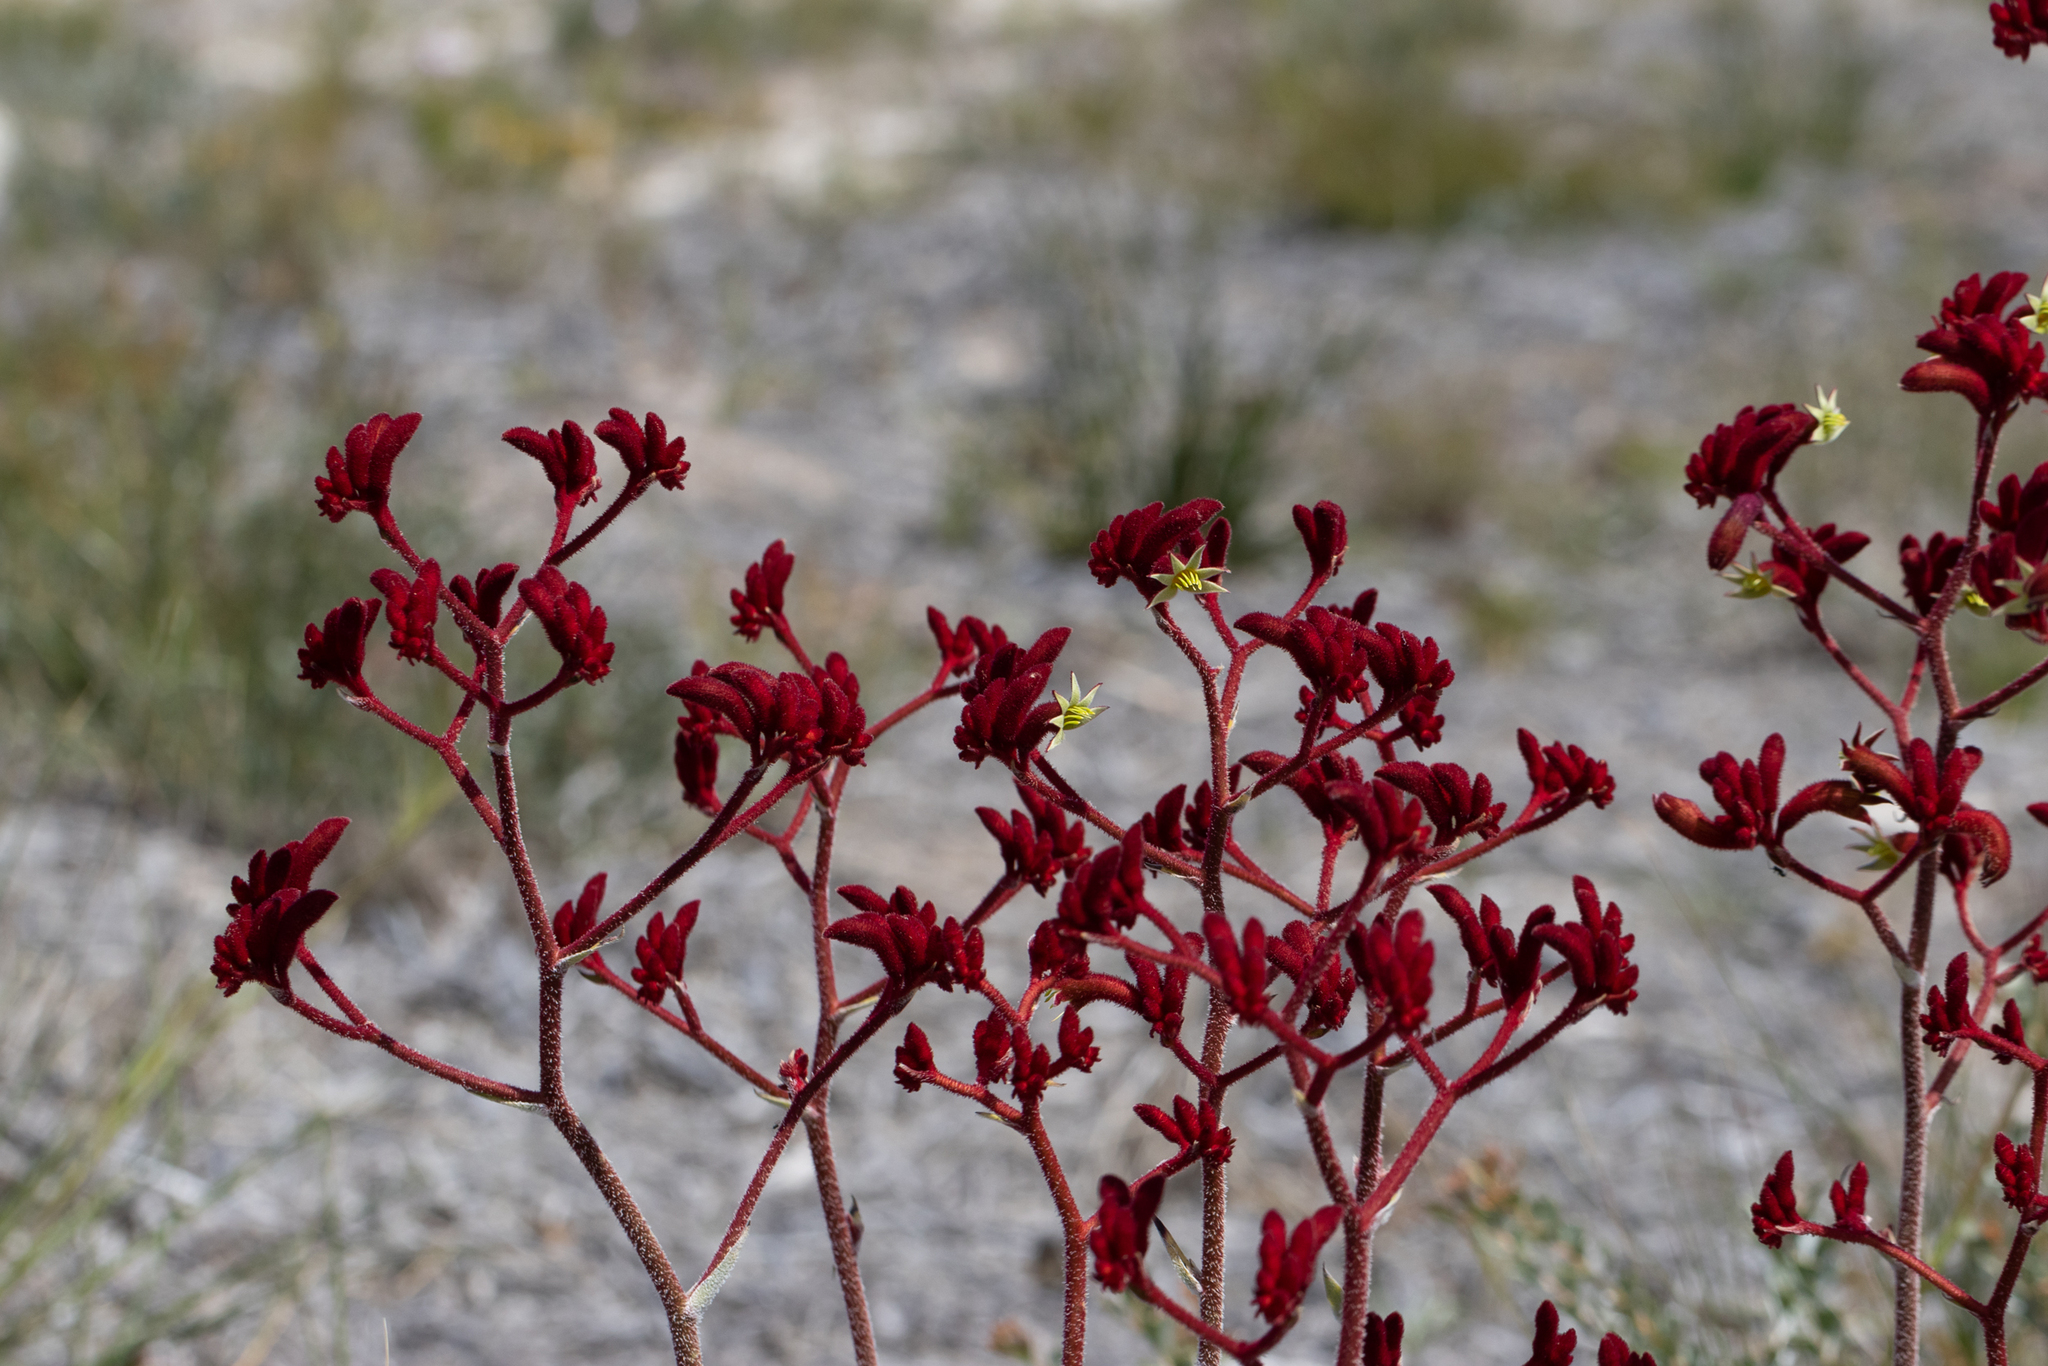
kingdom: Plantae
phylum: Tracheophyta
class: Liliopsida
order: Commelinales
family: Haemodoraceae
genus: Anigozanthos
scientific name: Anigozanthos rufus
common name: Red kangaroo-paw
